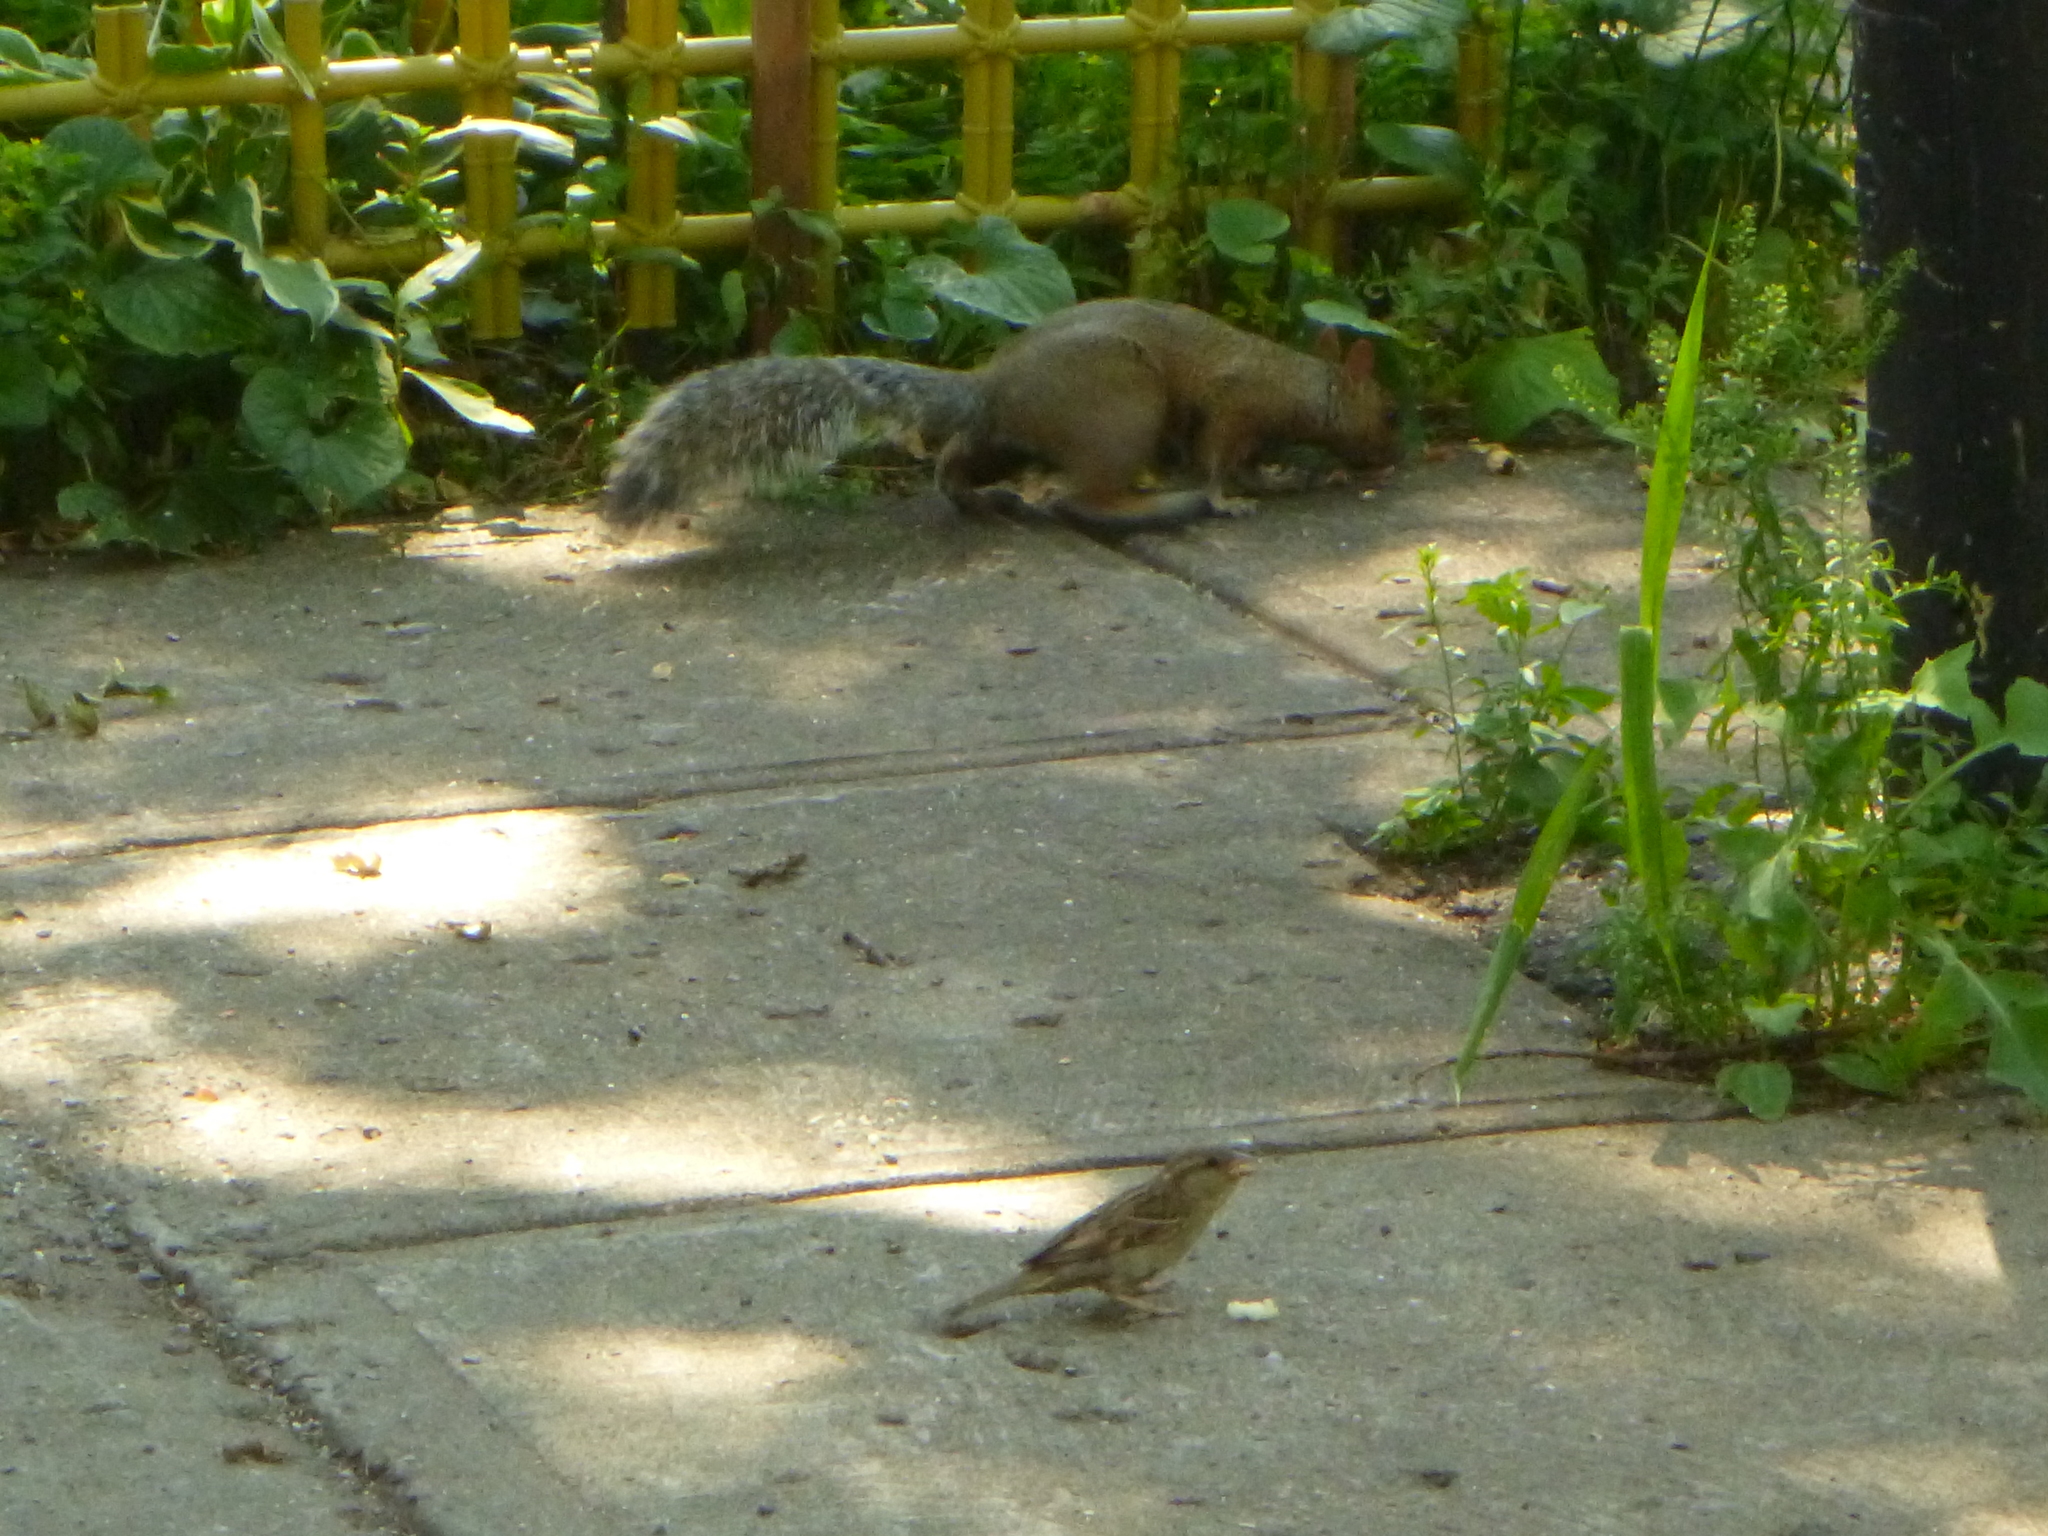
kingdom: Animalia
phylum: Chordata
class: Mammalia
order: Rodentia
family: Sciuridae
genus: Sciurus
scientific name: Sciurus carolinensis
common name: Eastern gray squirrel
